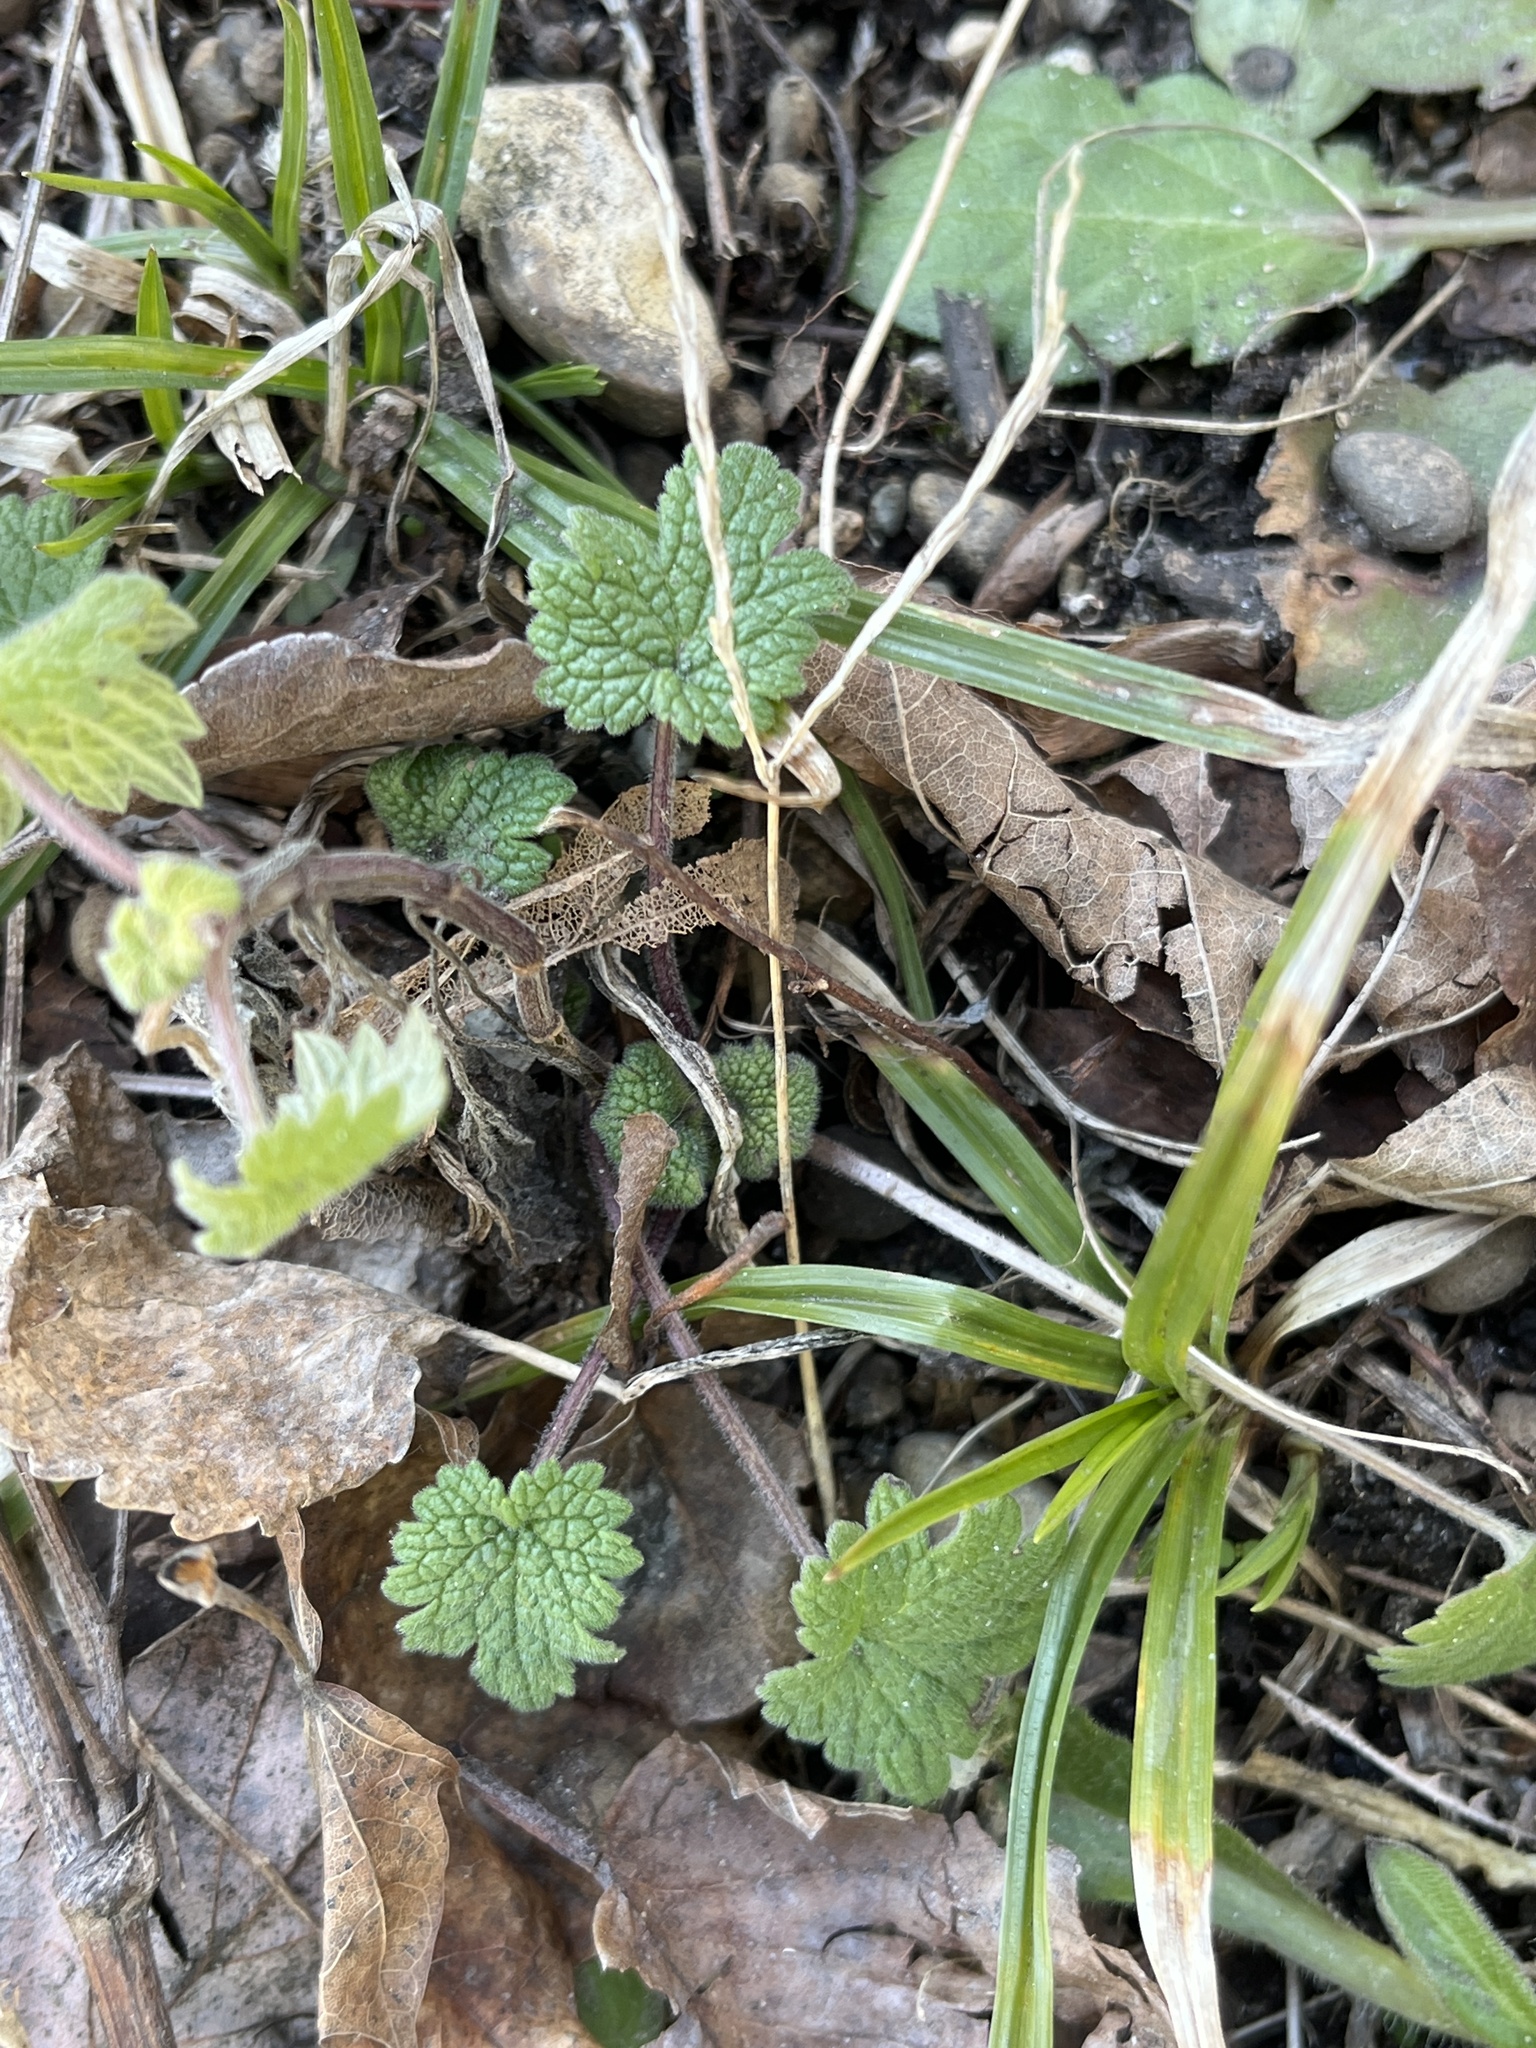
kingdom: Plantae
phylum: Tracheophyta
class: Magnoliopsida
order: Lamiales
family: Lamiaceae
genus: Leonurus
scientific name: Leonurus cardiaca
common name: Motherwort
